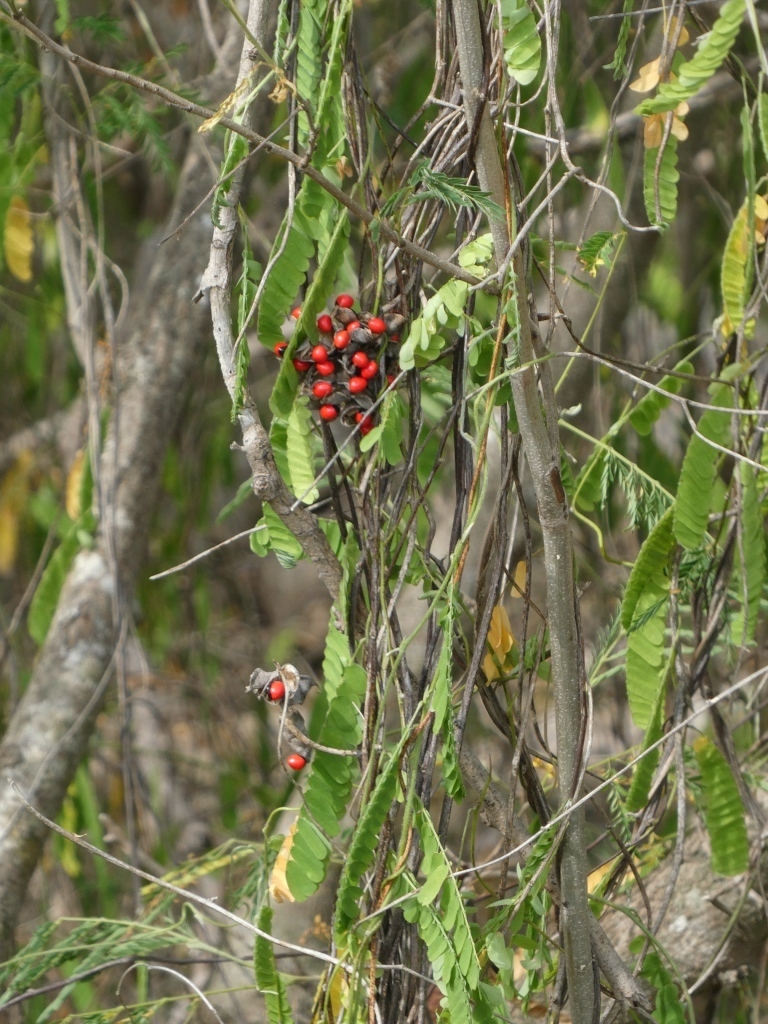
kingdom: Plantae
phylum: Tracheophyta
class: Magnoliopsida
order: Fabales
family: Fabaceae
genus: Abrus
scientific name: Abrus precatorius
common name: Rosarypea
